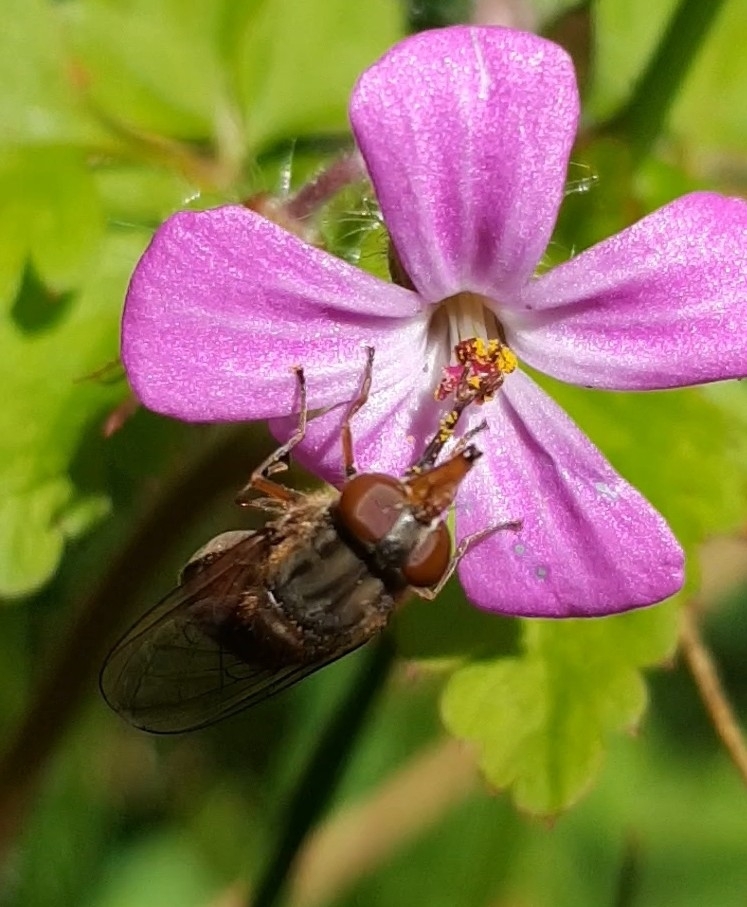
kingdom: Animalia
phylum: Arthropoda
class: Insecta
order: Diptera
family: Syrphidae
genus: Rhingia
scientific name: Rhingia campestris
